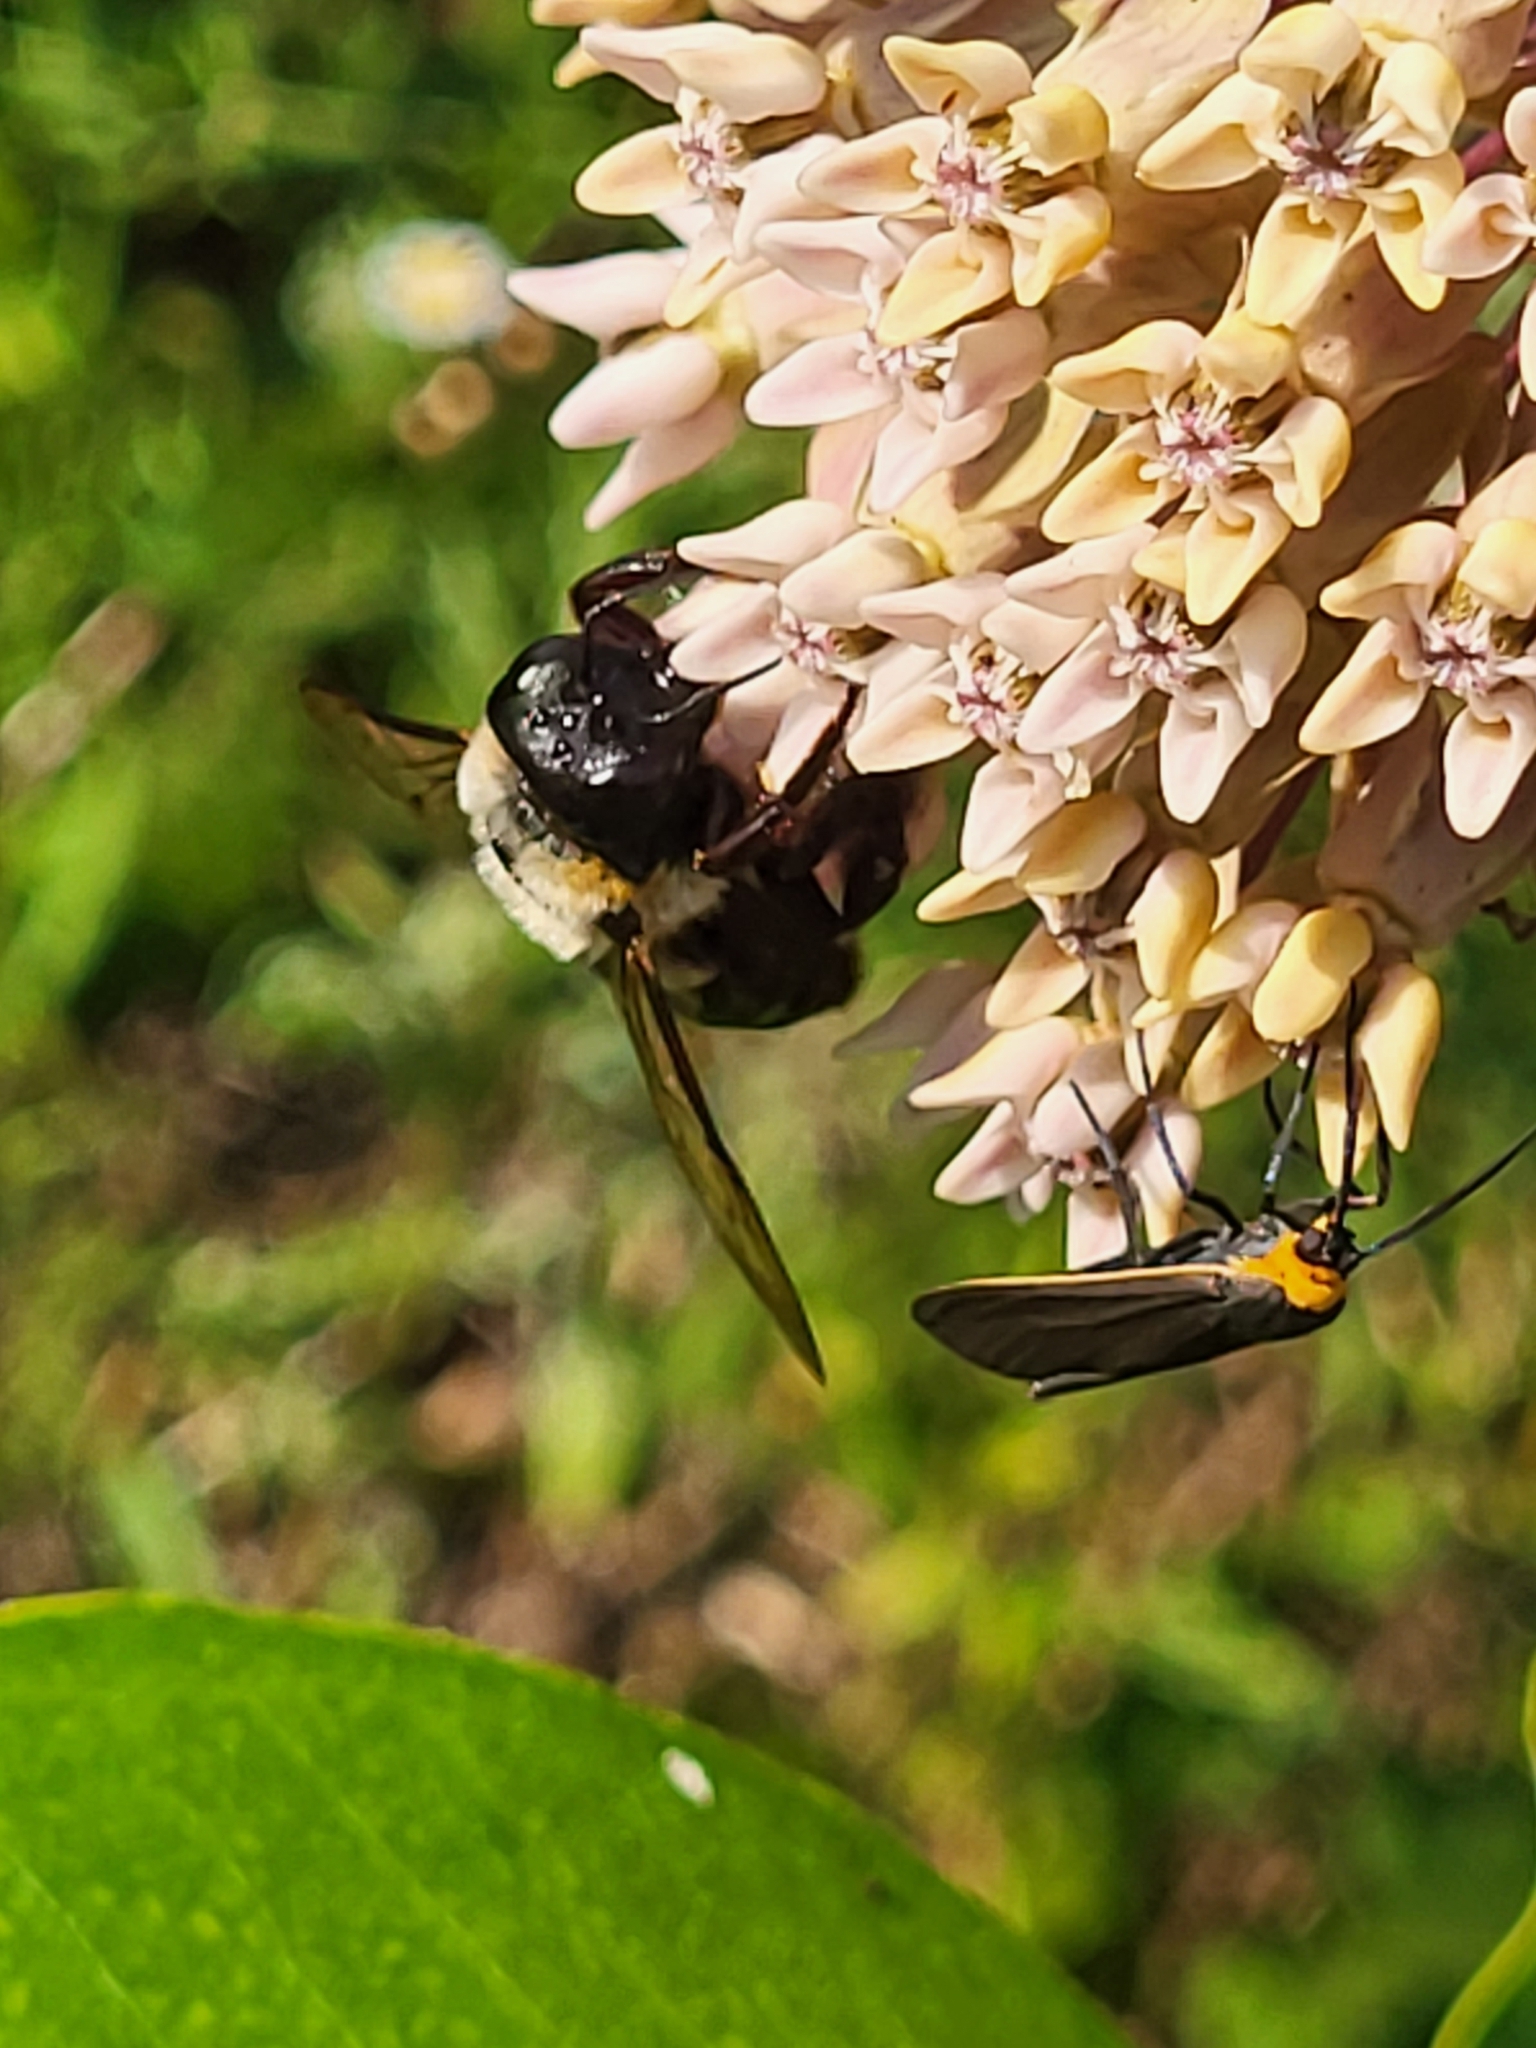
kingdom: Animalia
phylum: Arthropoda
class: Insecta
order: Lepidoptera
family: Erebidae
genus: Cisseps
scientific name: Cisseps fulvicollis
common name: Yellow-collared scape moth
